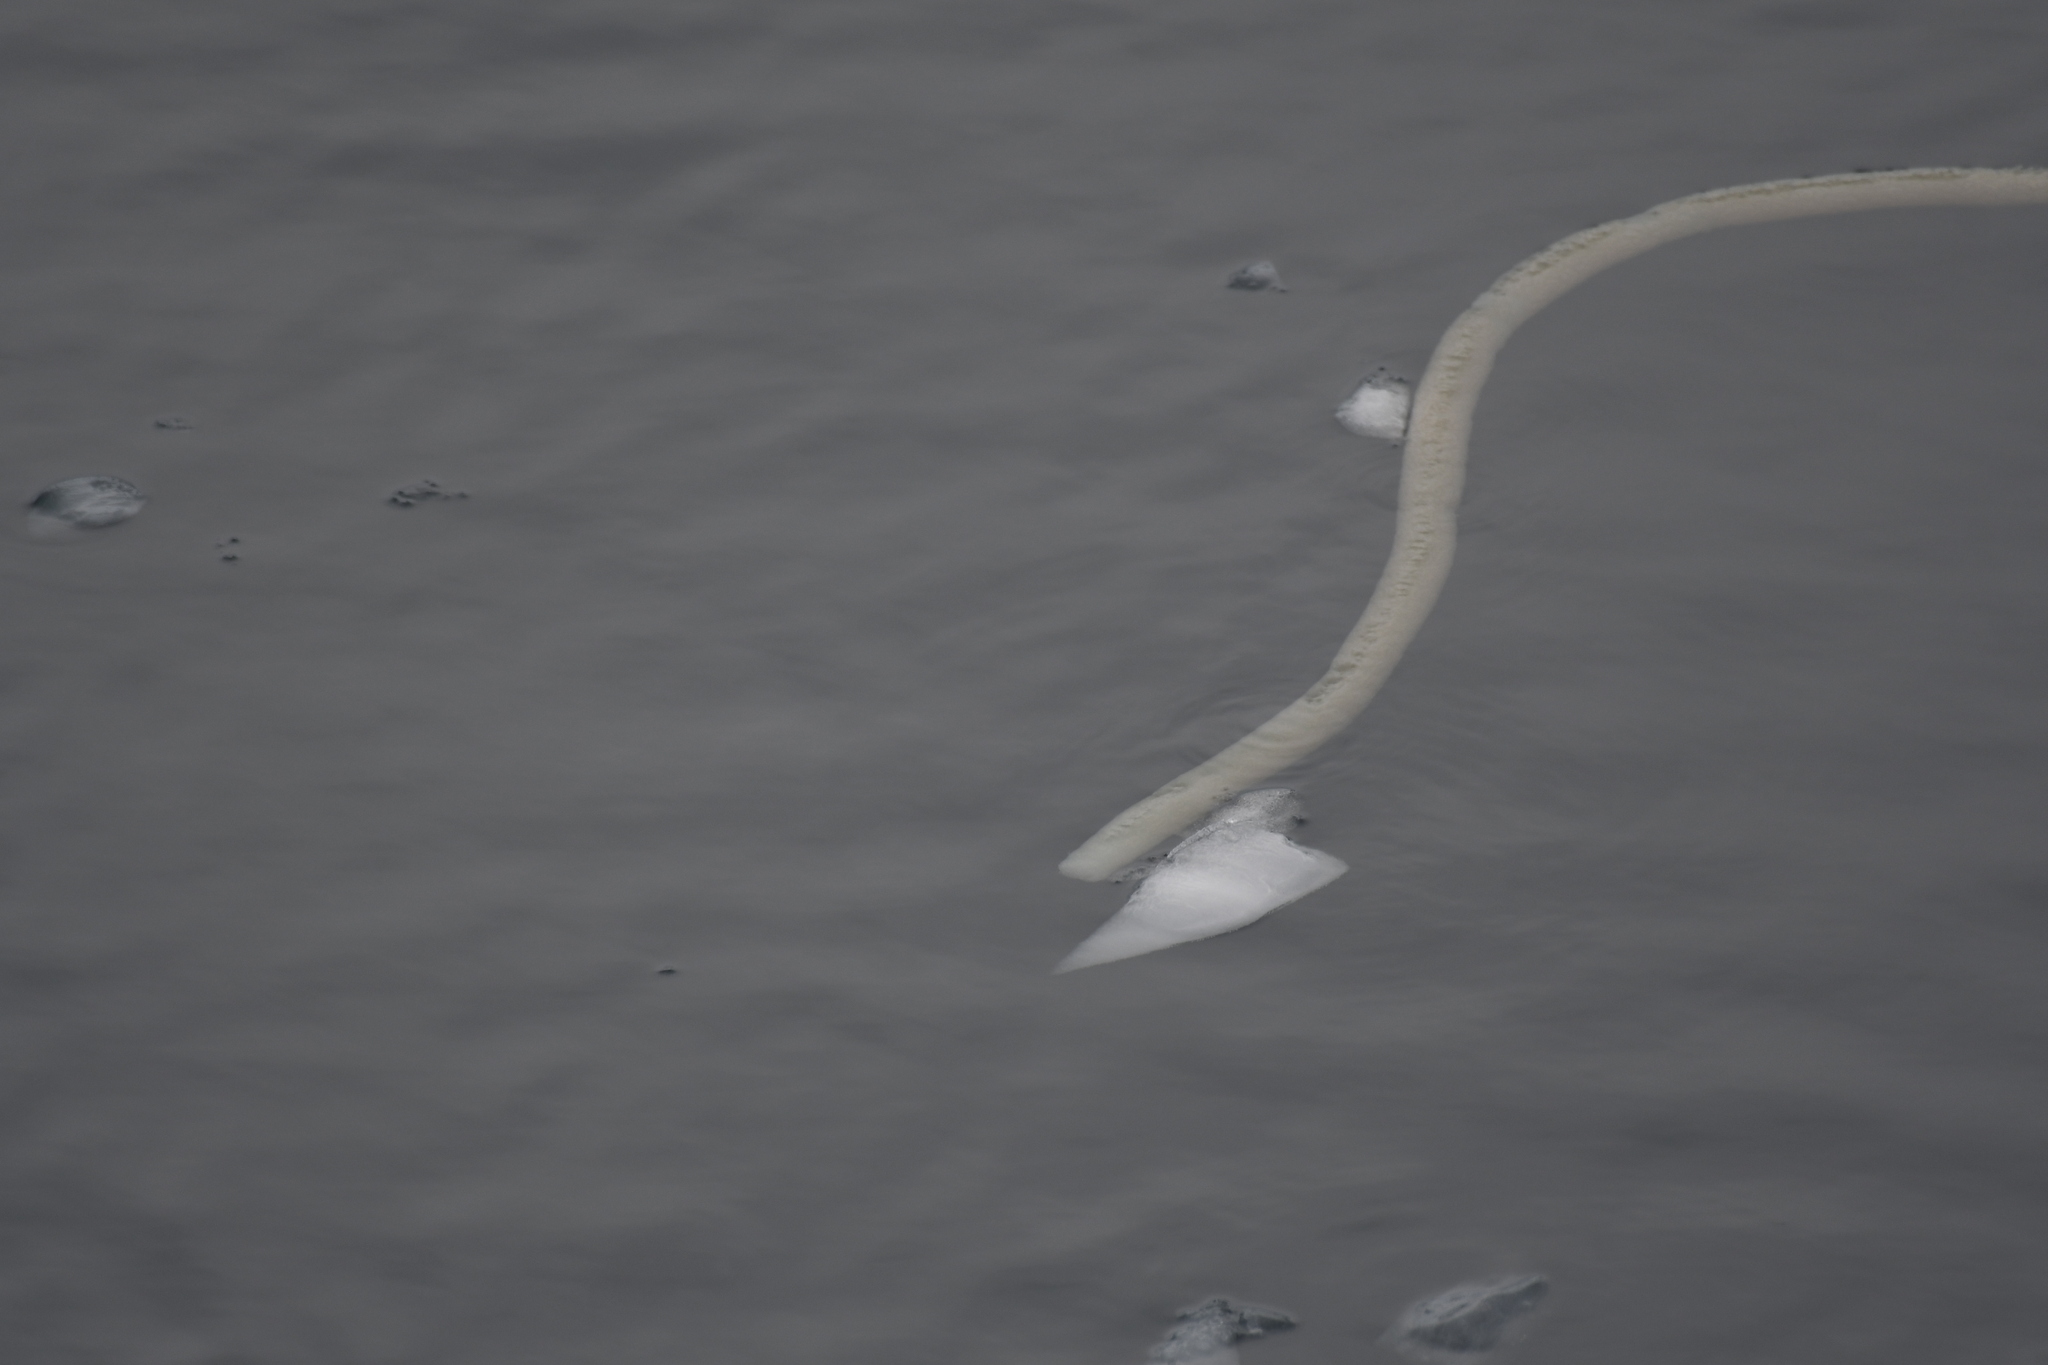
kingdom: Animalia
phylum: Chordata
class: Ascidiacea
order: Aplousobranchia
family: Holozoidae
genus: Distaplia
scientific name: Distaplia cylindrica
